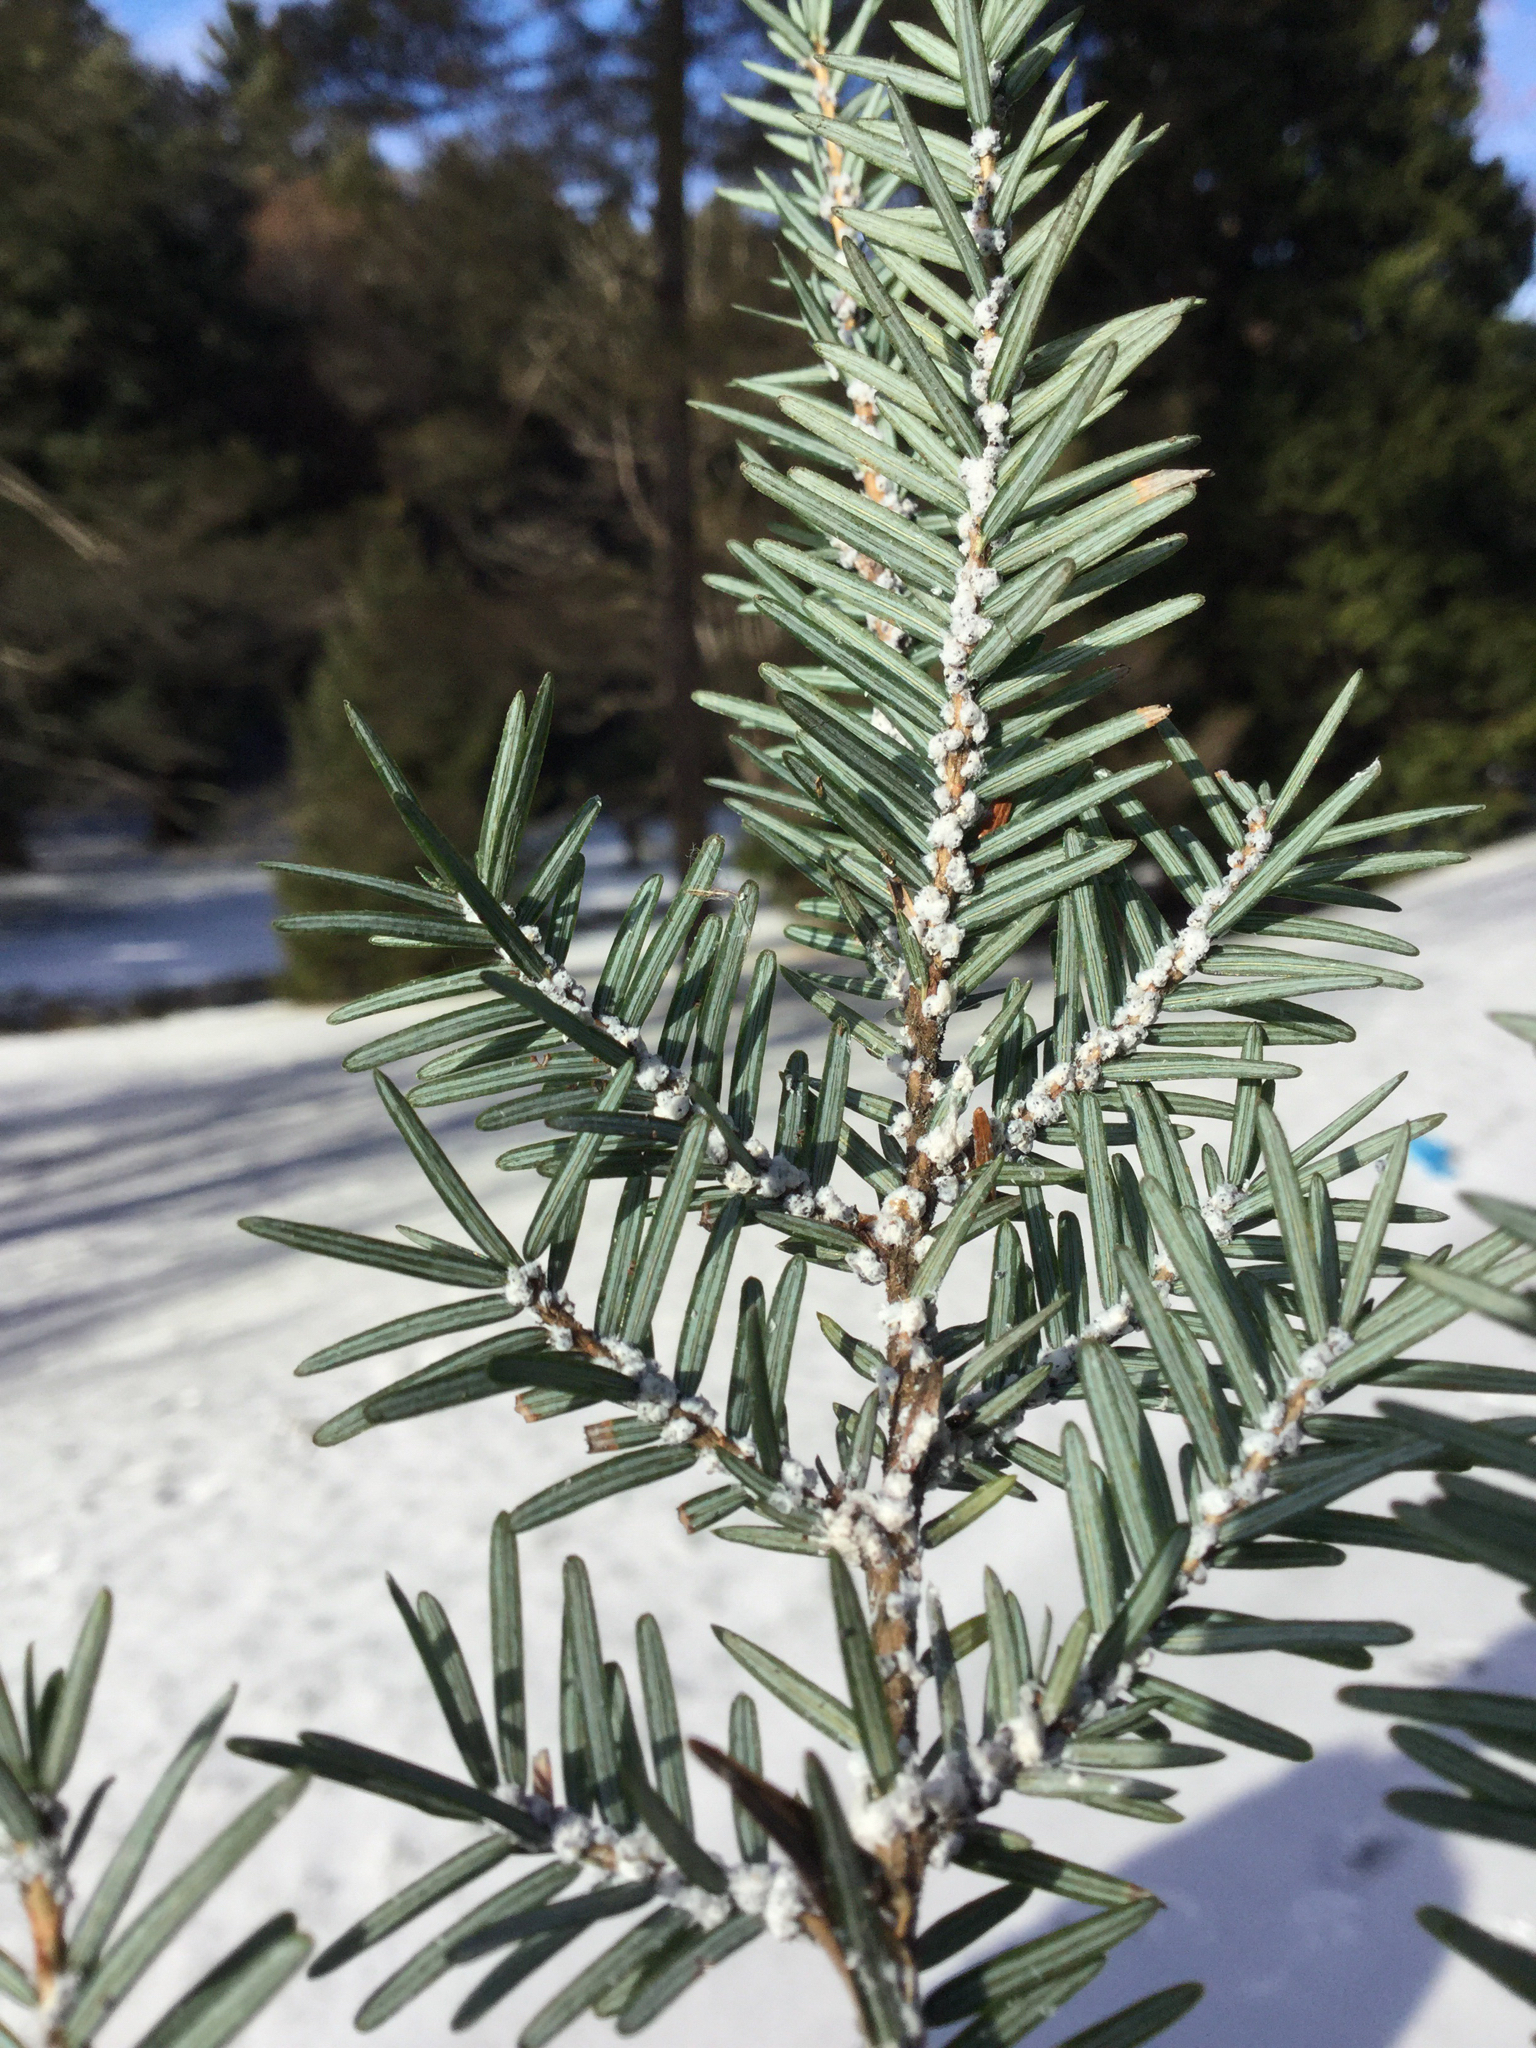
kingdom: Animalia
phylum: Arthropoda
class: Insecta
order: Hemiptera
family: Adelgidae
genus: Adelges
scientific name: Adelges tsugae
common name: Hemlock woolly adelgid
